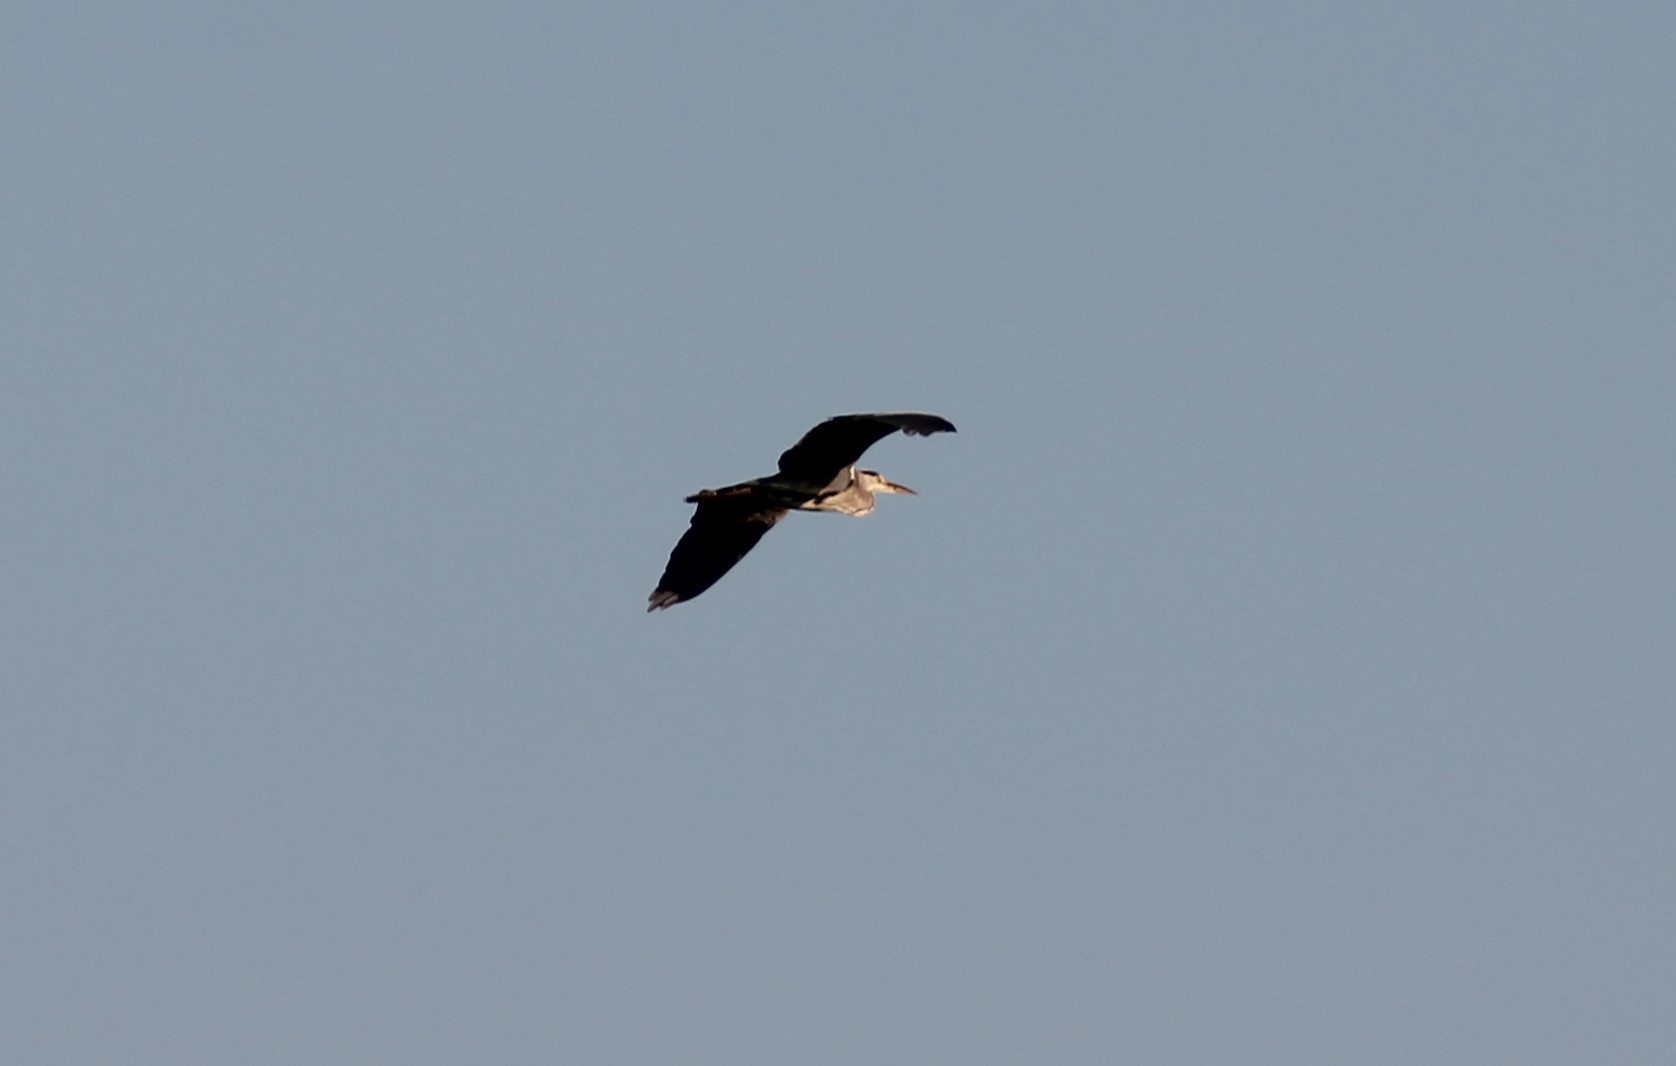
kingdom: Animalia
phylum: Chordata
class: Aves
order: Pelecaniformes
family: Ardeidae
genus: Ardea
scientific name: Ardea cinerea
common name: Grey heron
